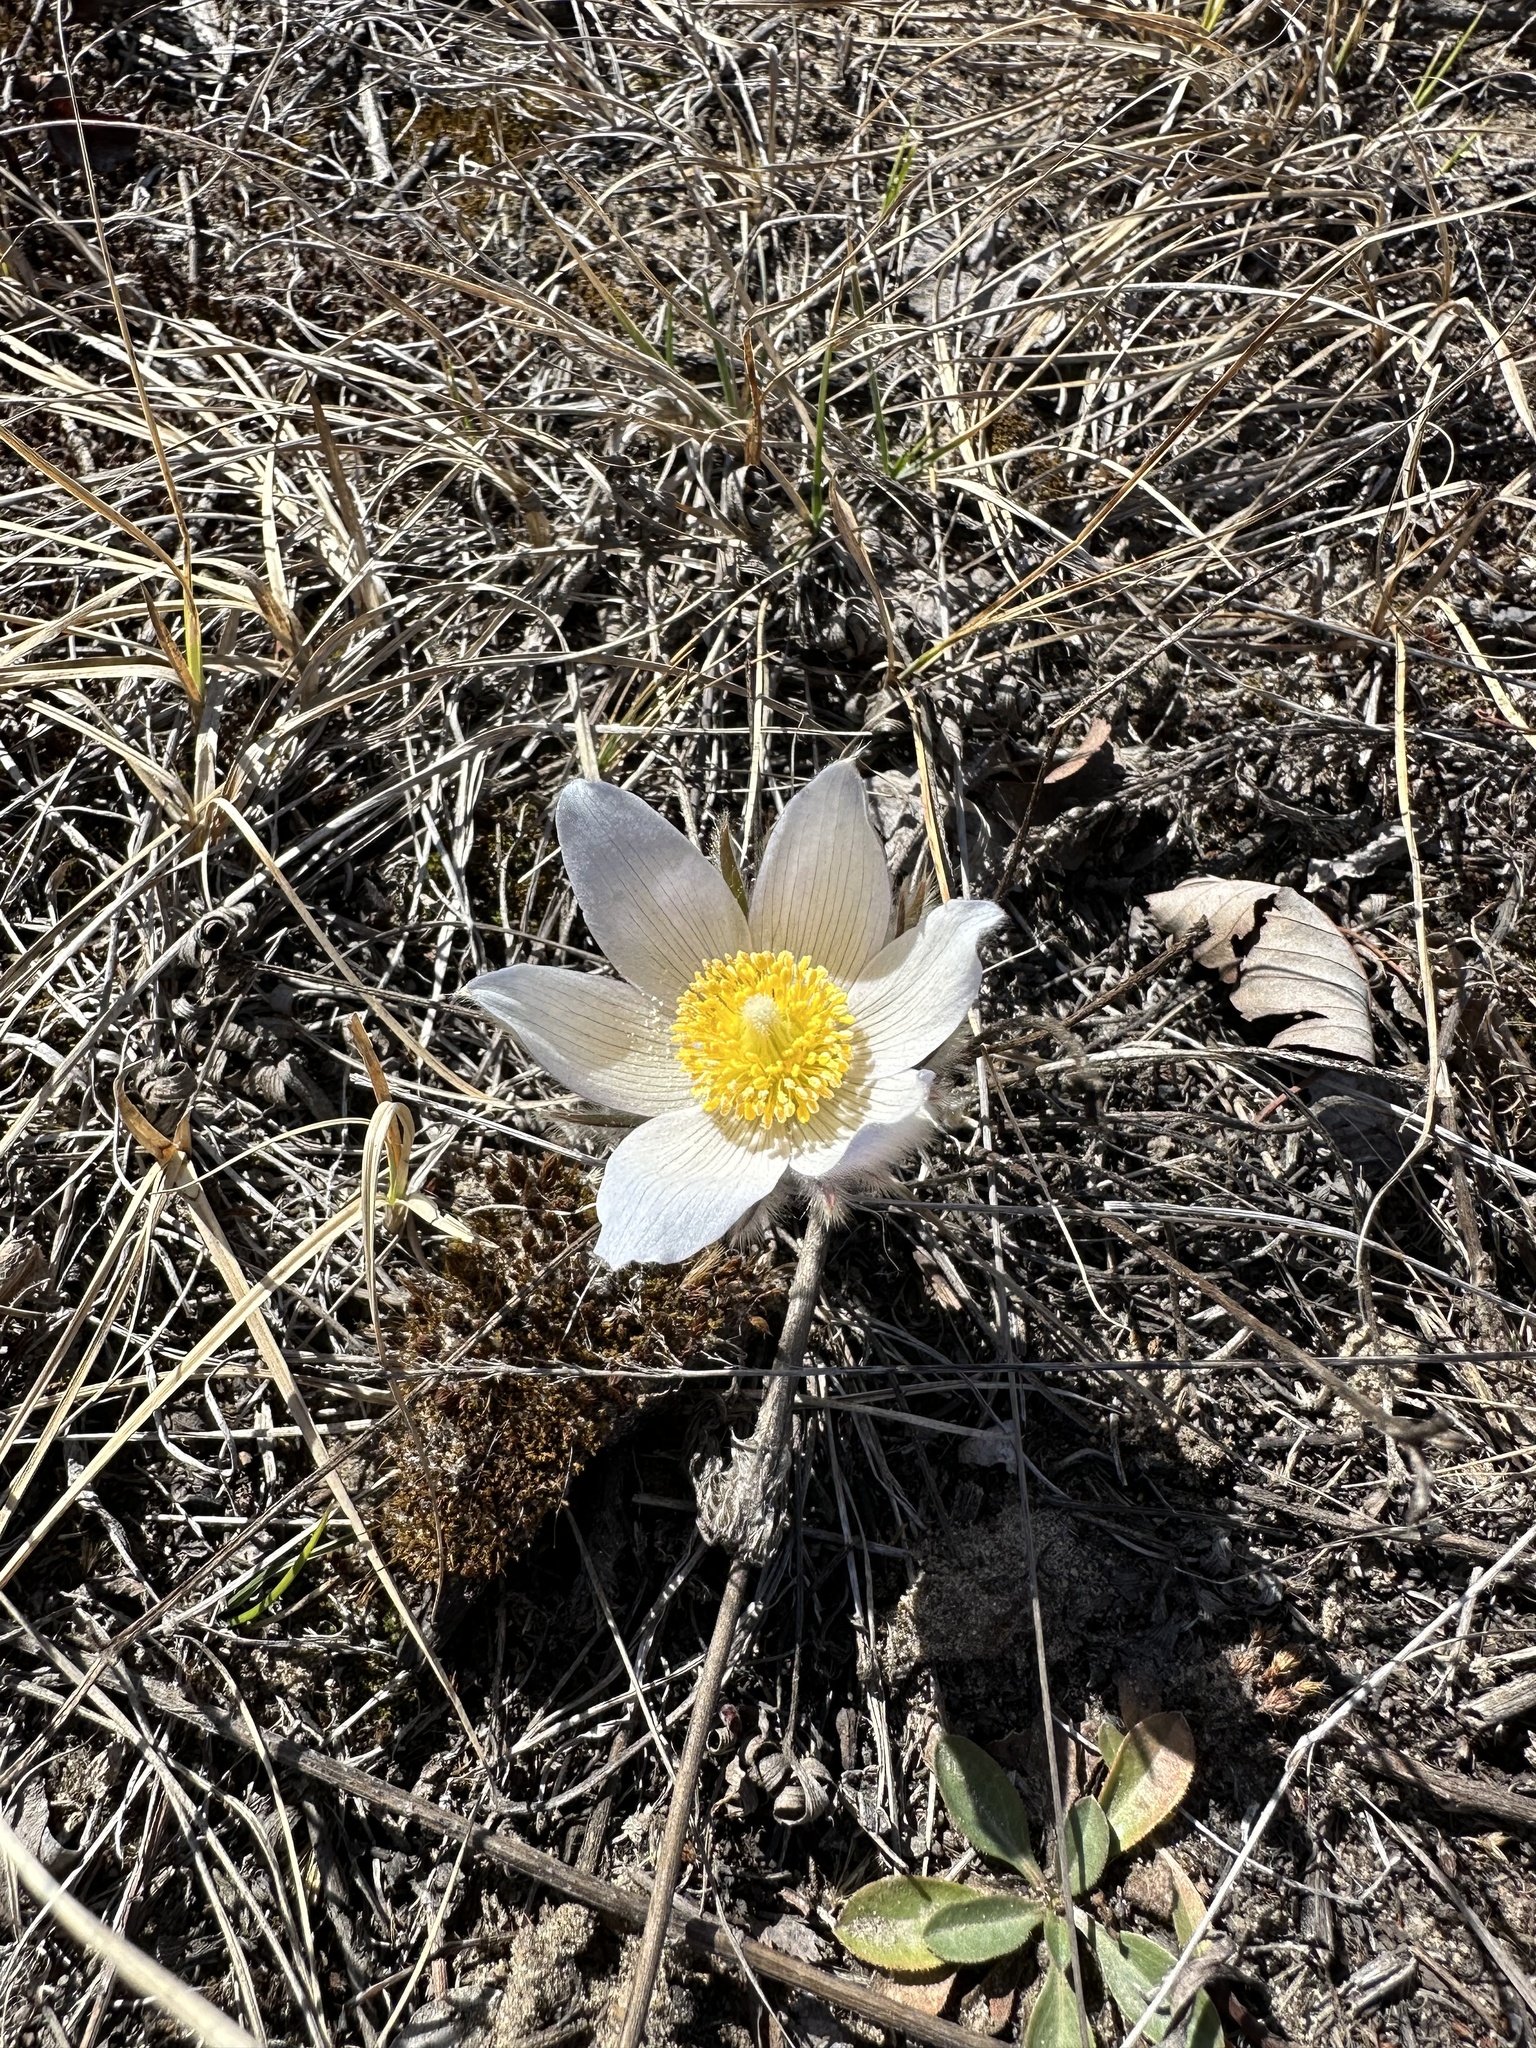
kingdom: Plantae
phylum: Tracheophyta
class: Magnoliopsida
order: Ranunculales
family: Ranunculaceae
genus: Pulsatilla
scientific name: Pulsatilla nuttalliana
